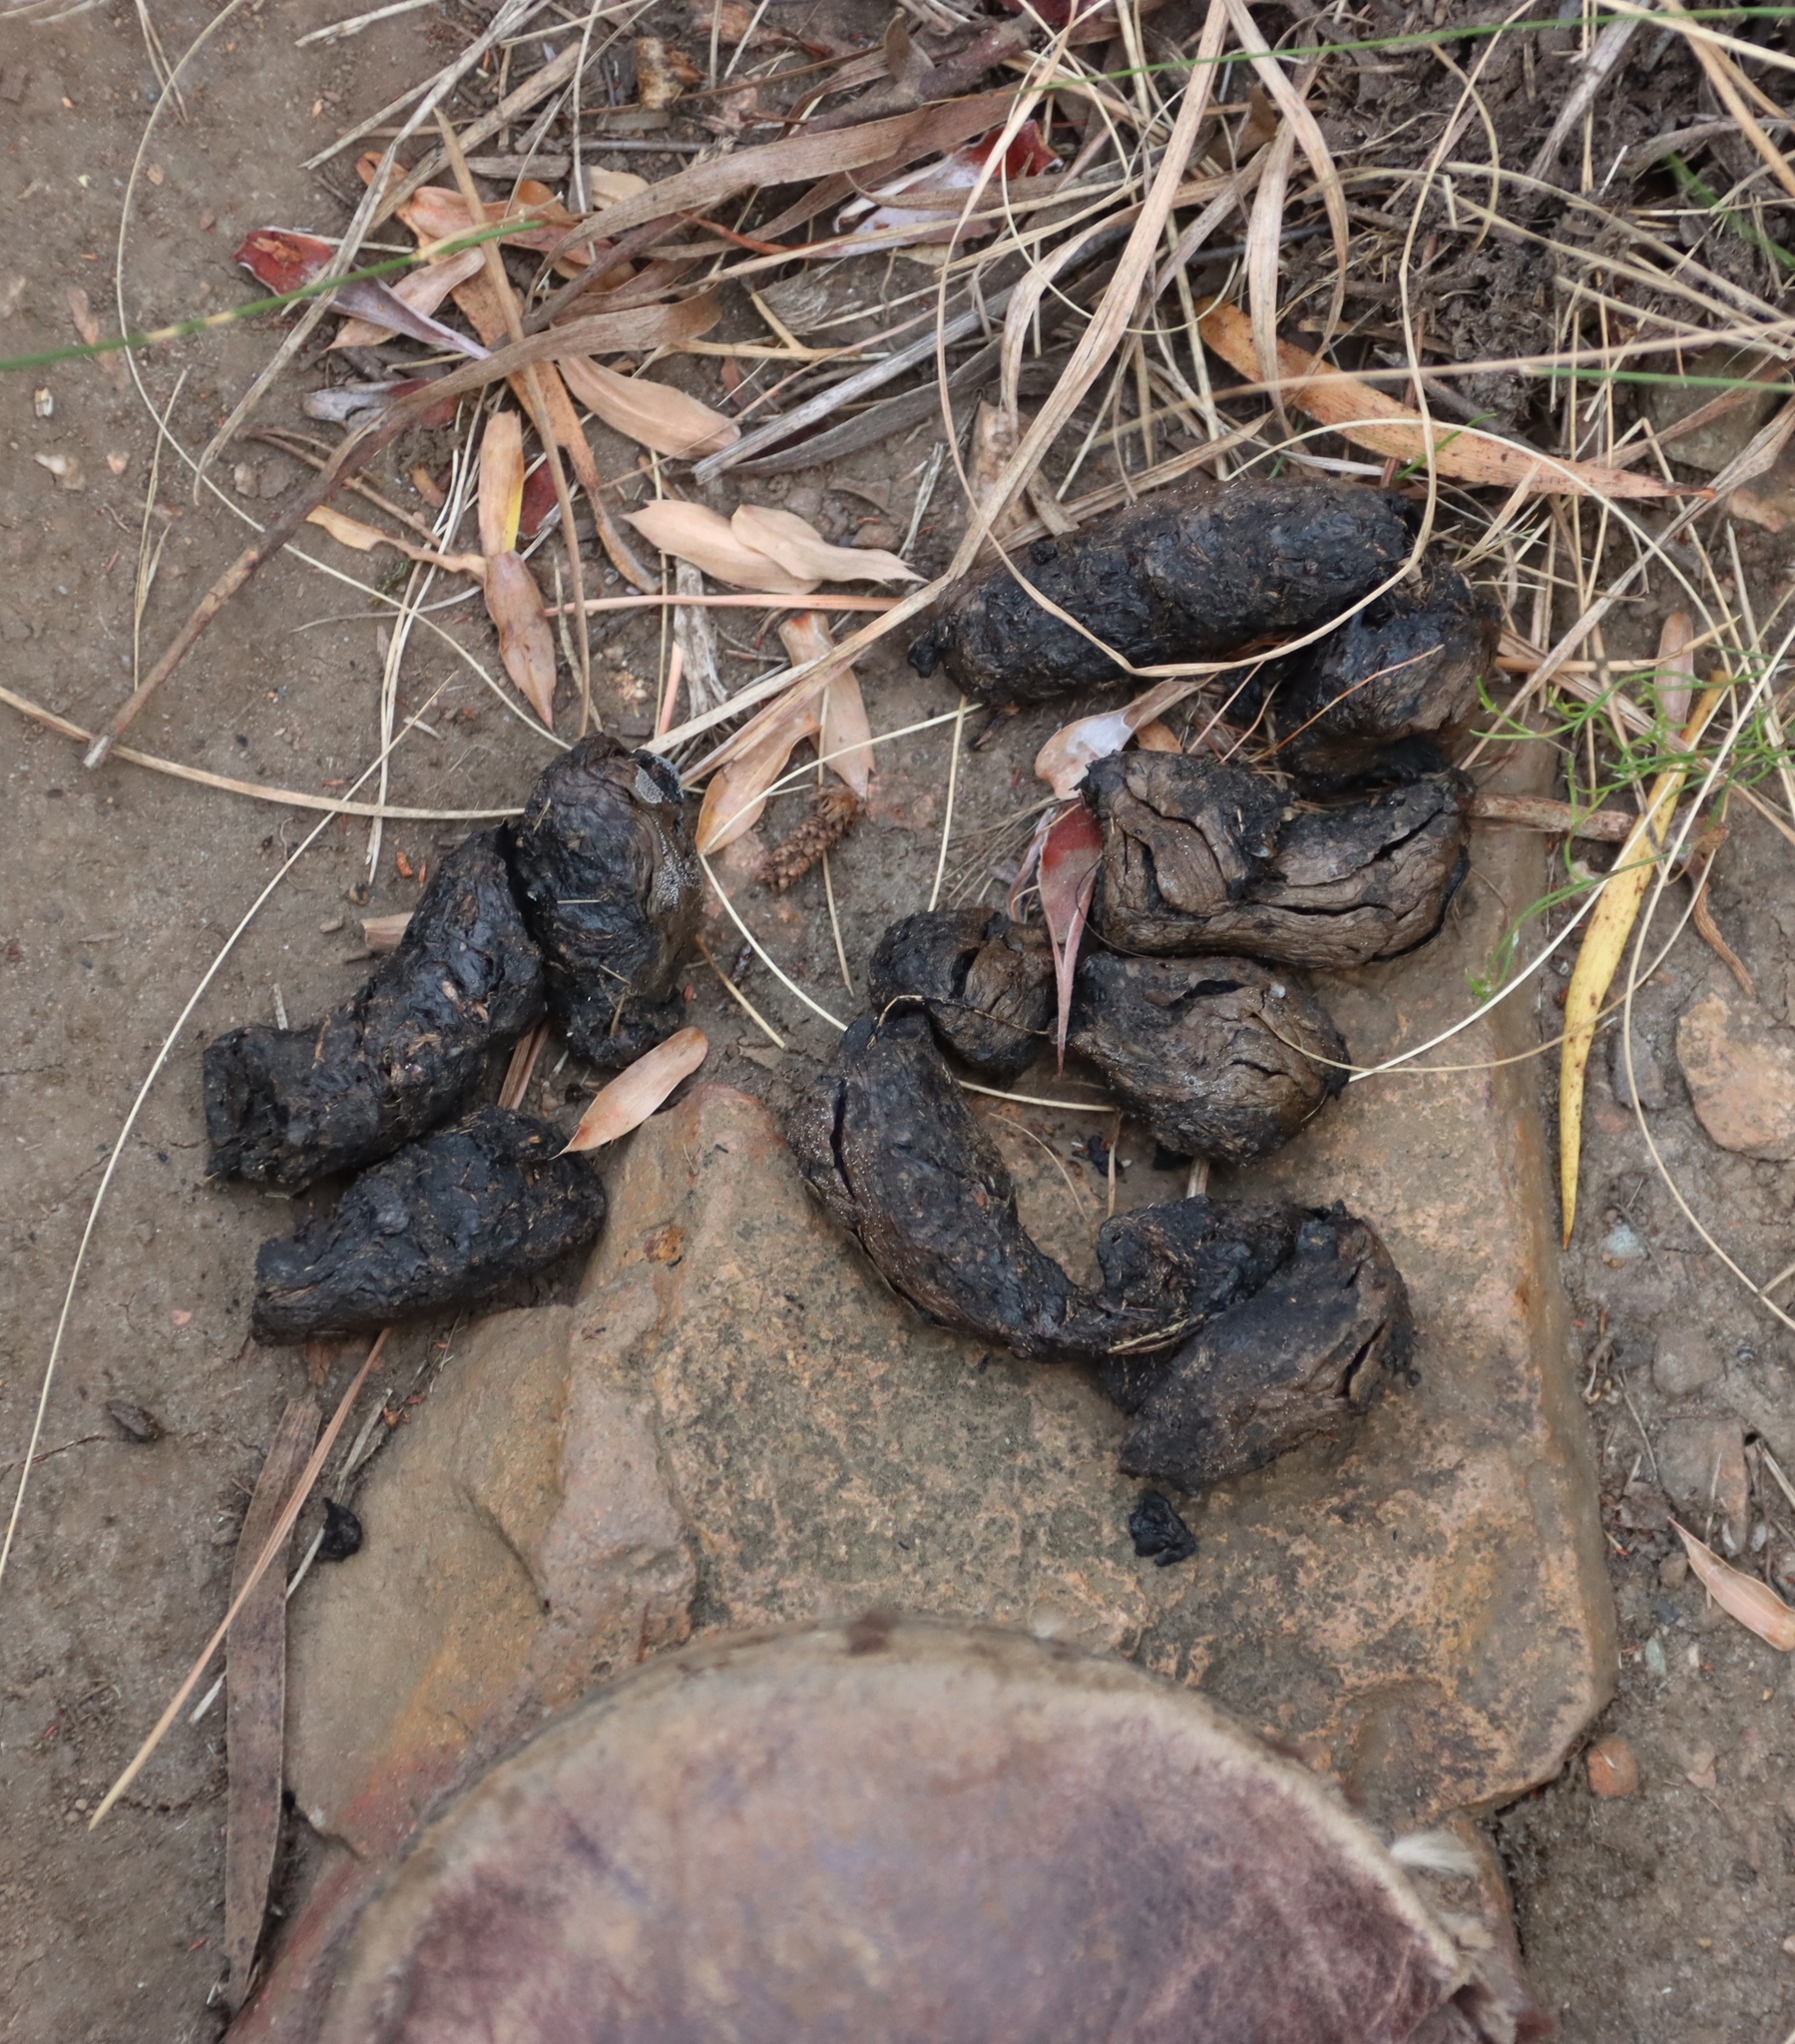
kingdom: Animalia
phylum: Chordata
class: Mammalia
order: Rodentia
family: Hystricidae
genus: Hystrix
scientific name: Hystrix africaeaustralis
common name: Cape porcupine
